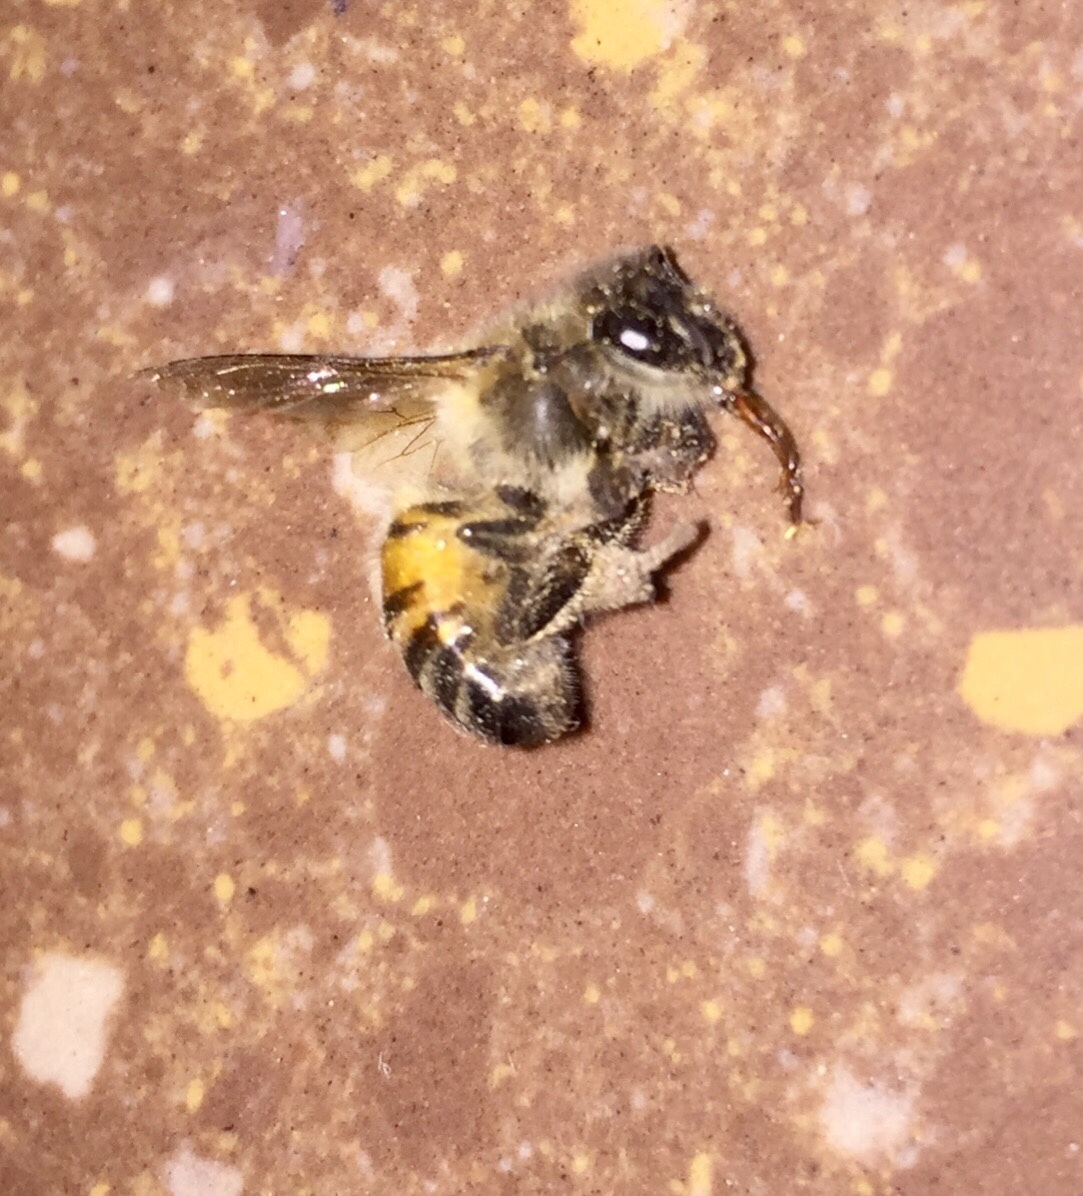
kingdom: Animalia
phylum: Arthropoda
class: Insecta
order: Hymenoptera
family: Apidae
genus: Apis
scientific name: Apis mellifera
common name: Honey bee
